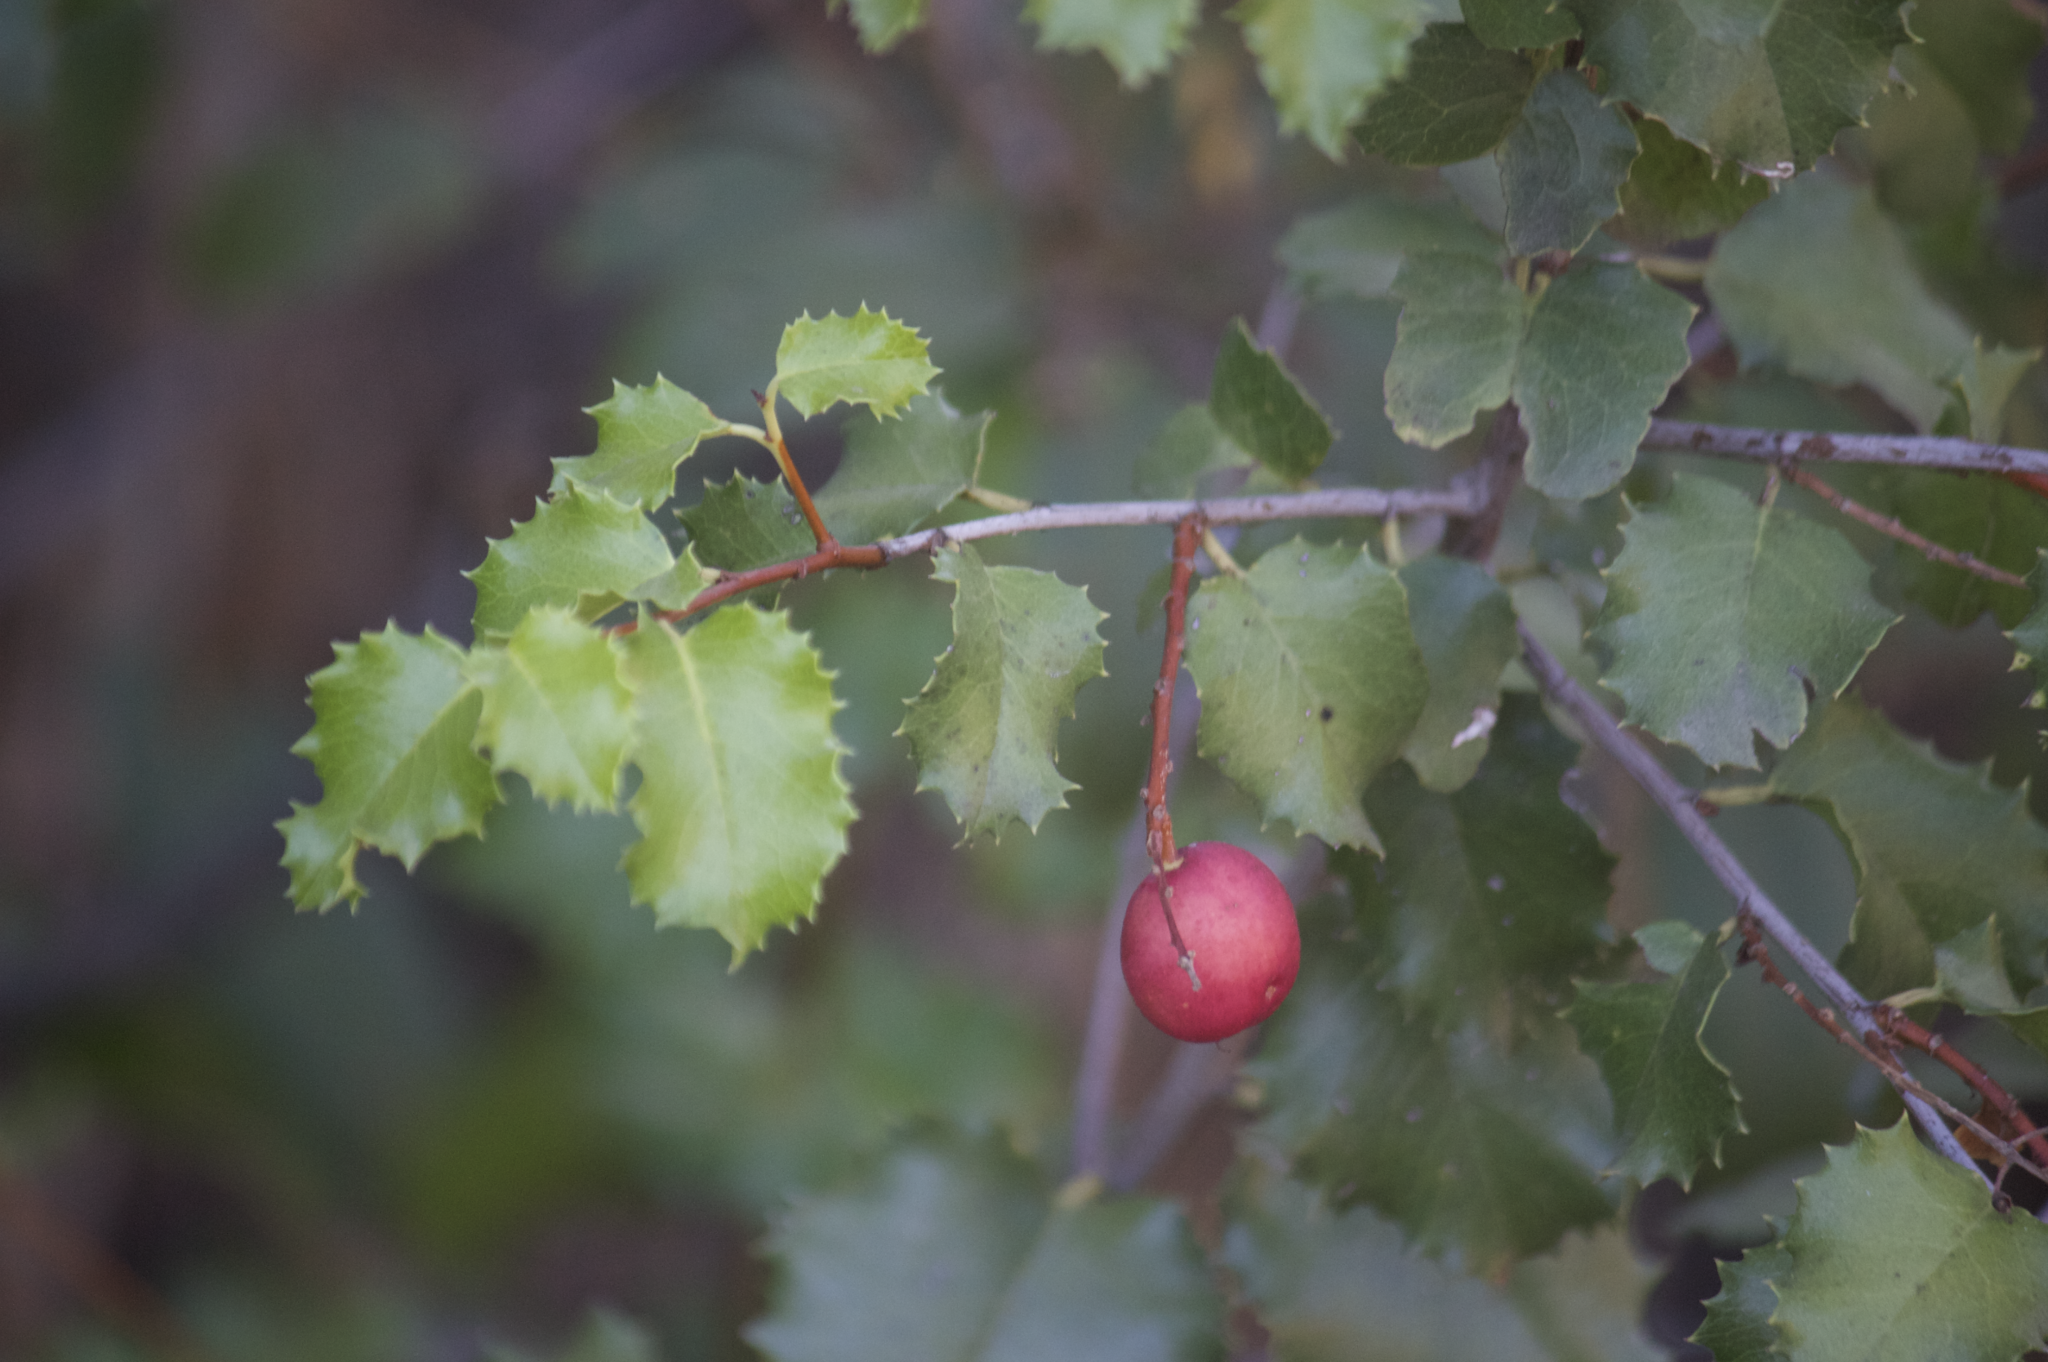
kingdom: Plantae
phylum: Tracheophyta
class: Magnoliopsida
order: Rosales
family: Rosaceae
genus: Prunus
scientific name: Prunus ilicifolia
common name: Hollyleaf cherry
